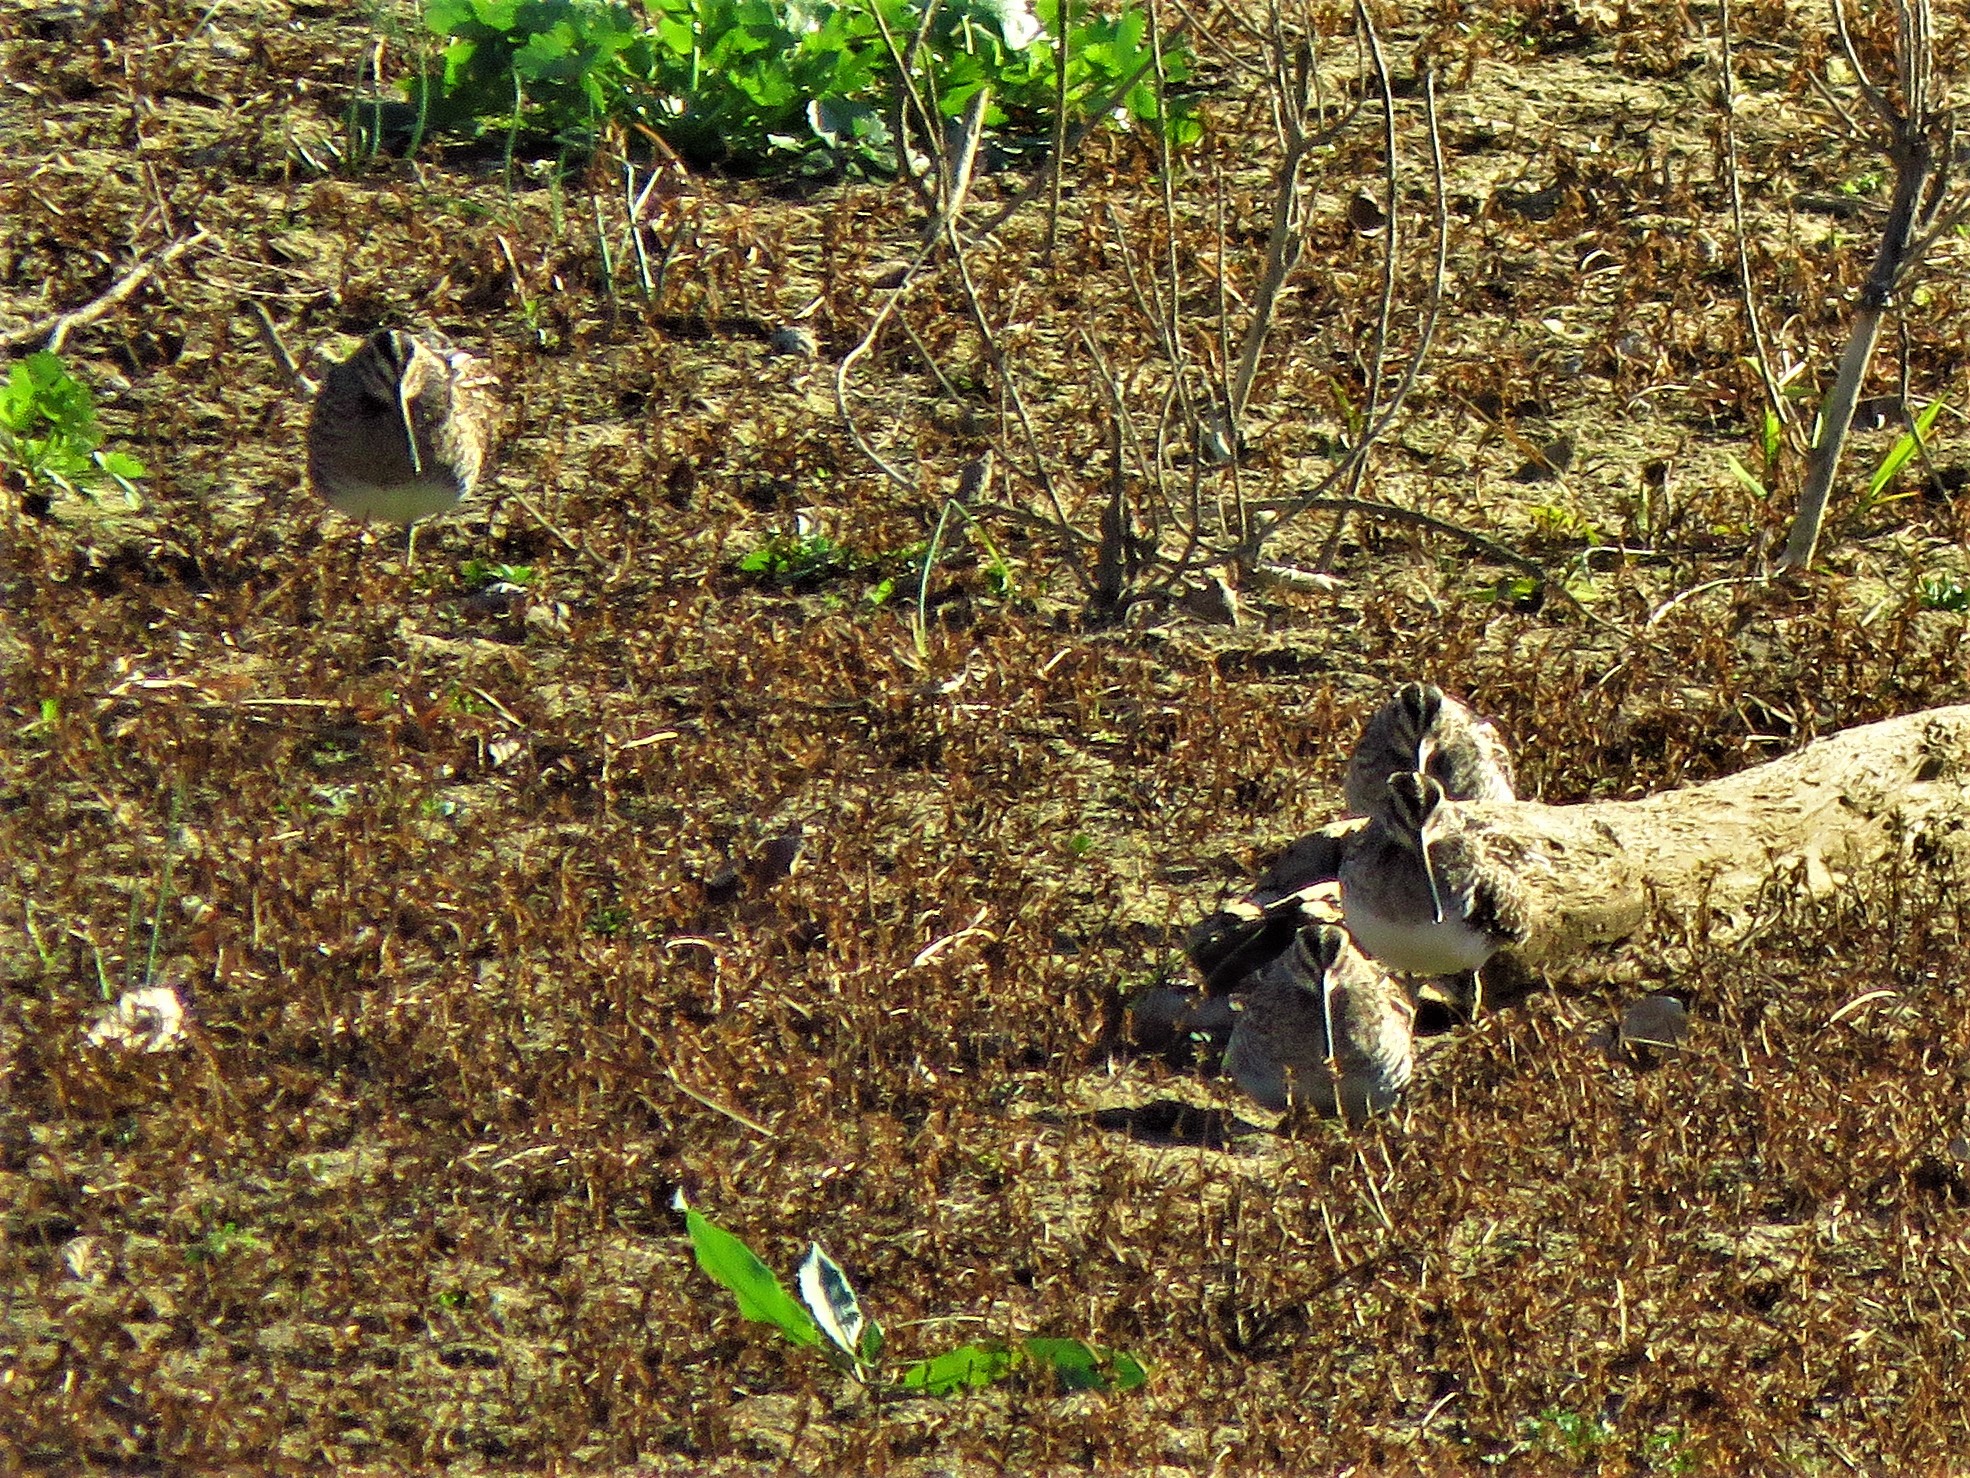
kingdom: Animalia
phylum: Chordata
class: Aves
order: Charadriiformes
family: Scolopacidae
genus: Gallinago
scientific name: Gallinago delicata
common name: Wilson's snipe
